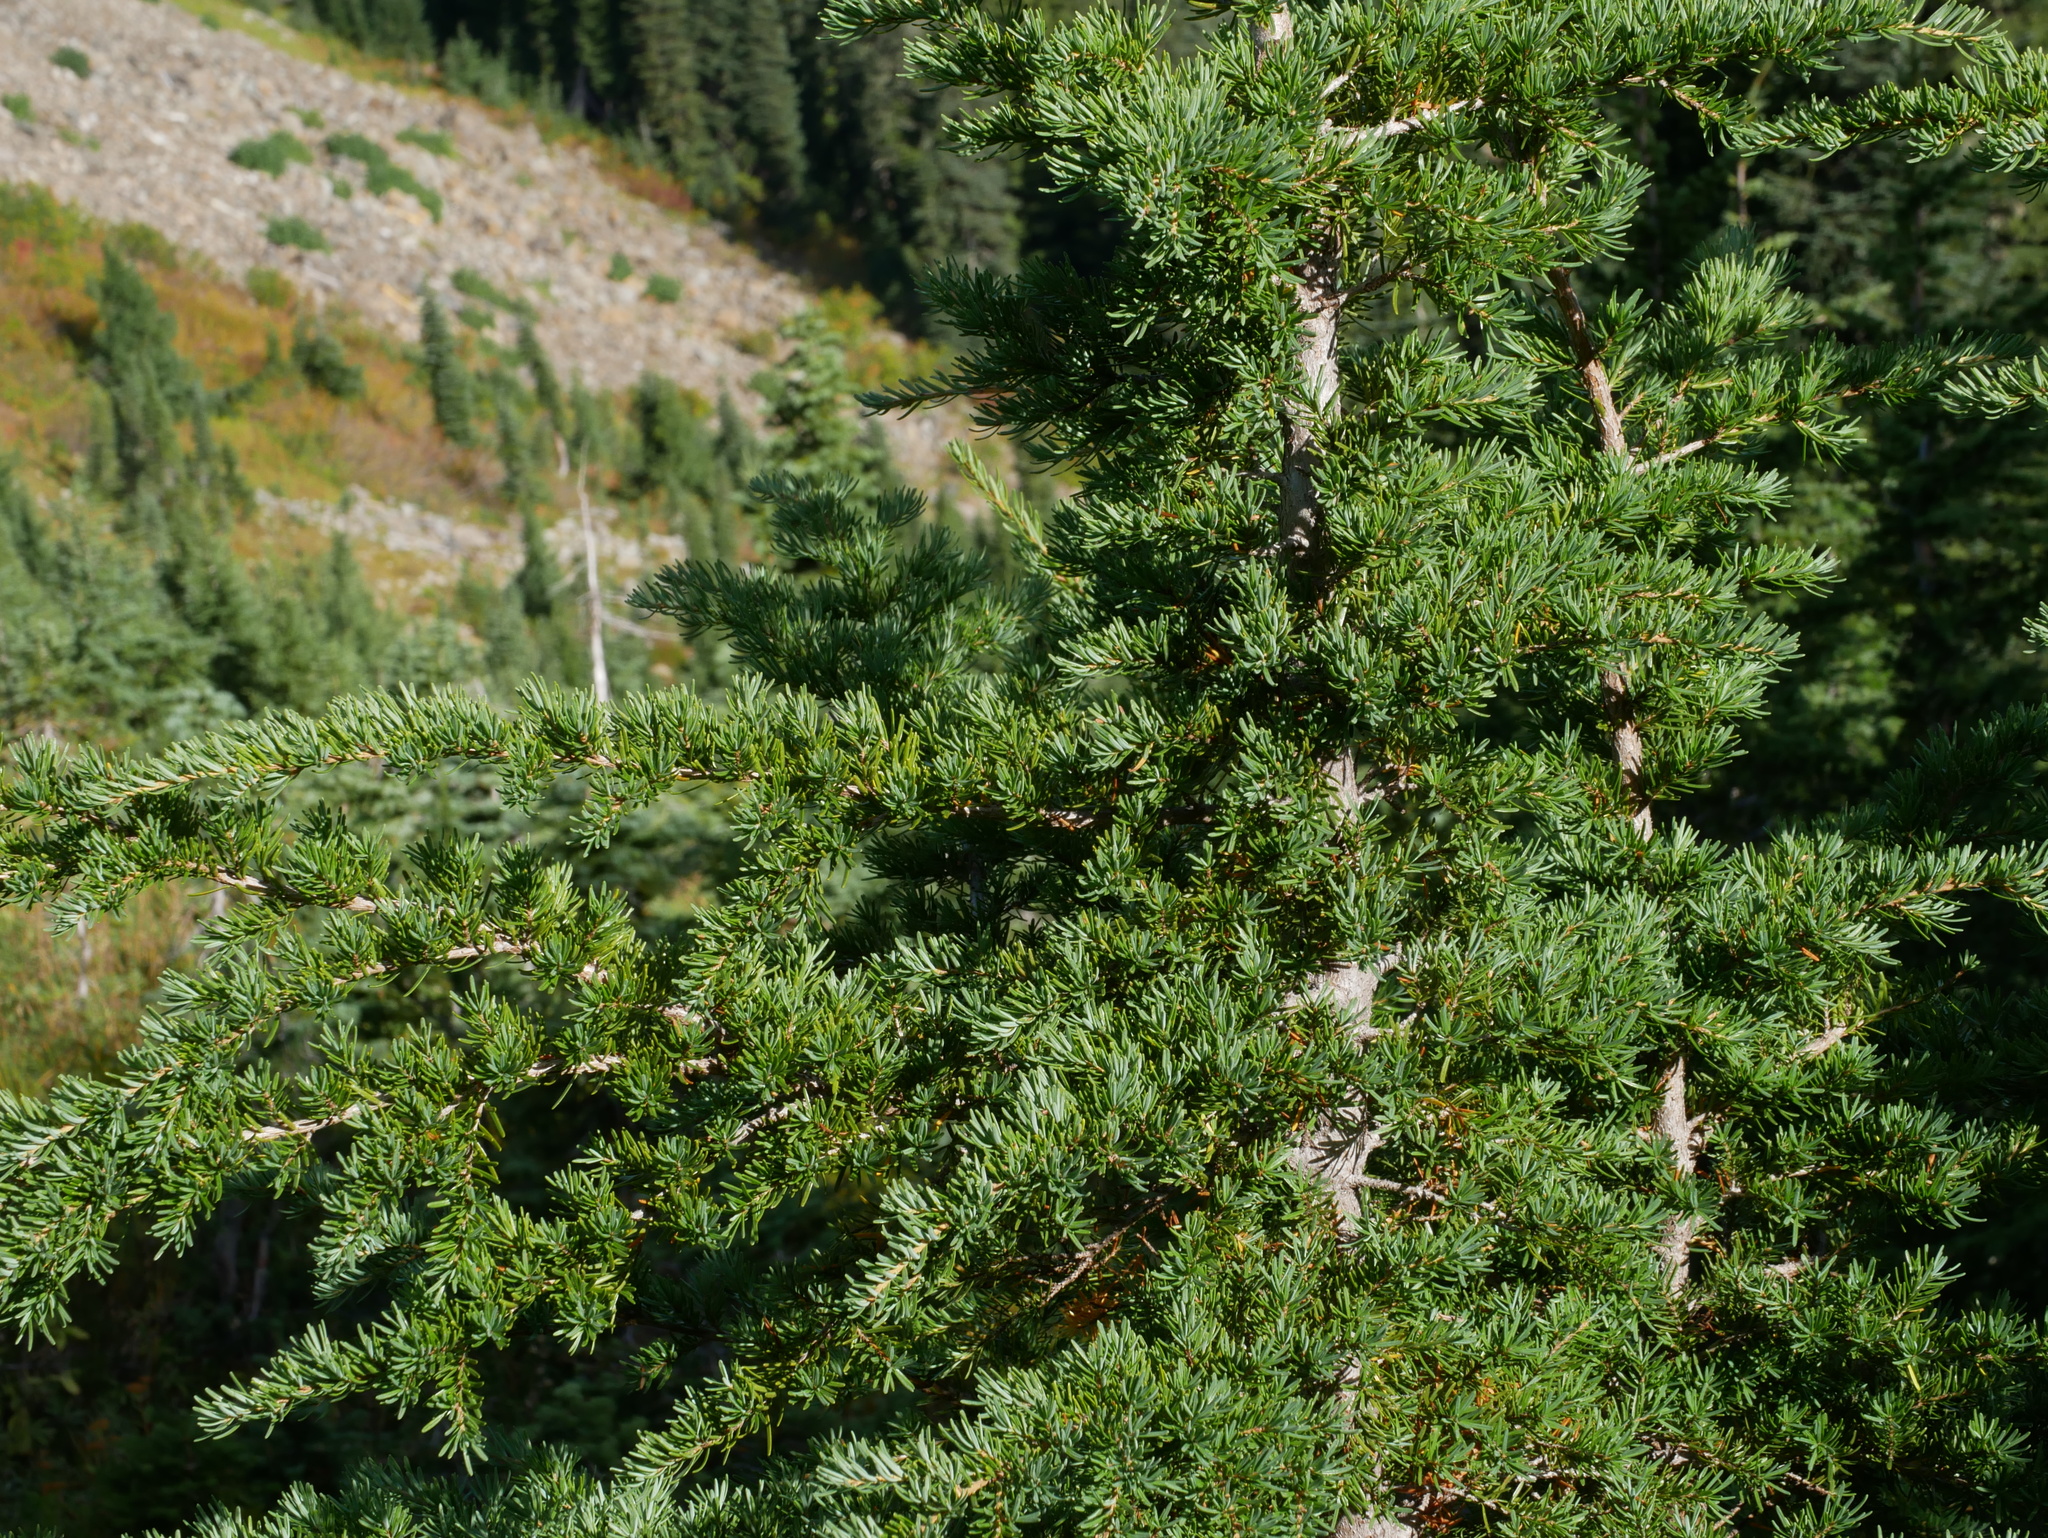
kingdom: Plantae
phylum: Tracheophyta
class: Pinopsida
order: Pinales
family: Pinaceae
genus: Tsuga
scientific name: Tsuga mertensiana
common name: Mountain hemlock
